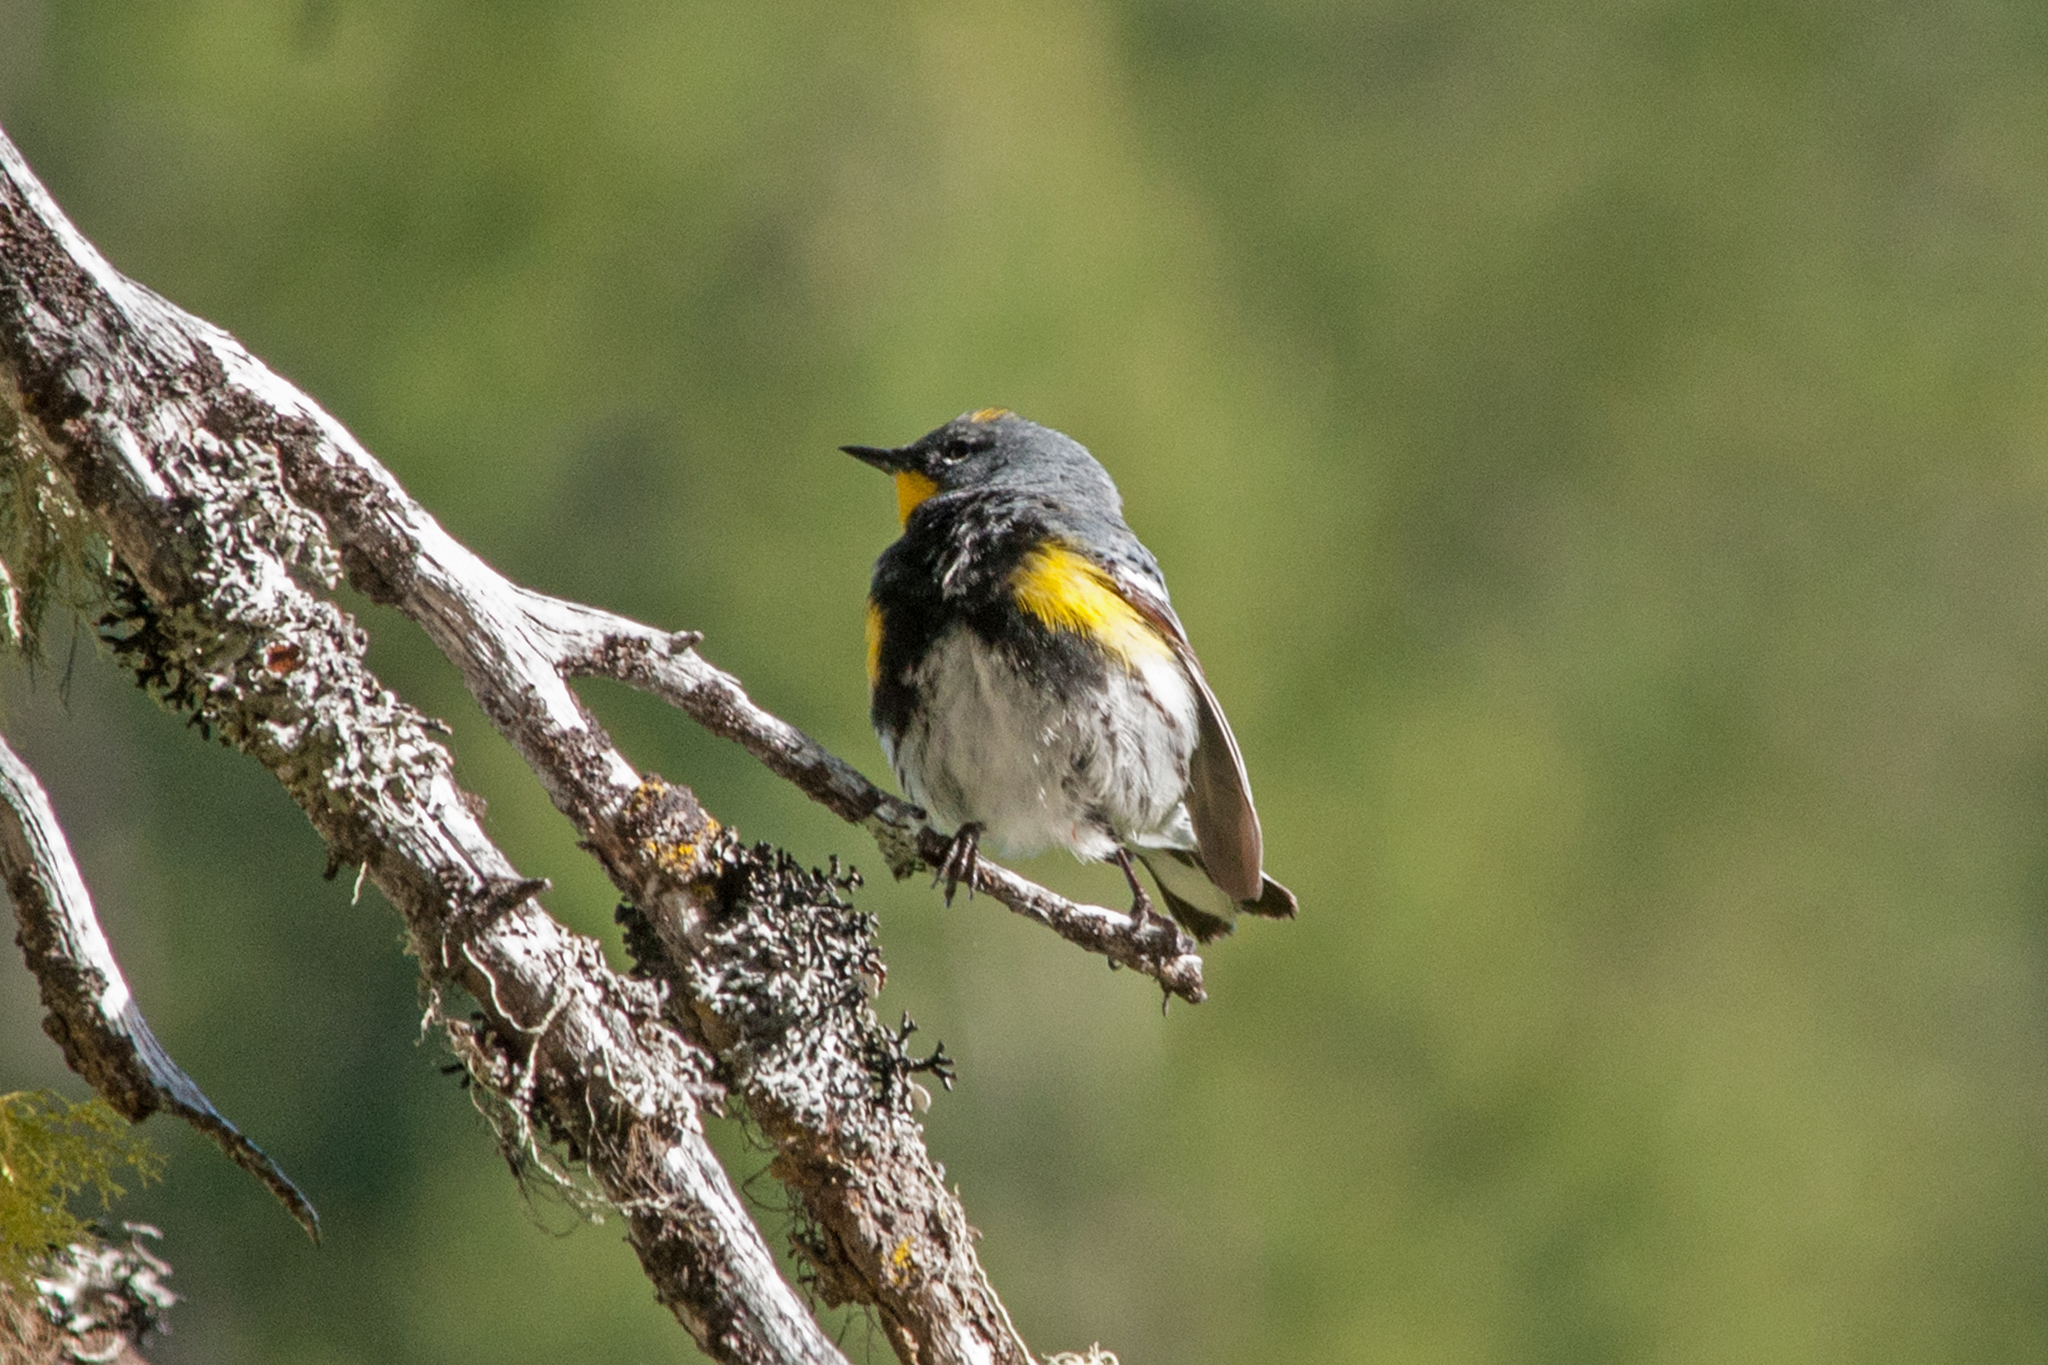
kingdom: Animalia
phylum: Chordata
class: Aves
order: Passeriformes
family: Parulidae
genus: Setophaga
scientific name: Setophaga coronata
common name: Myrtle warbler
